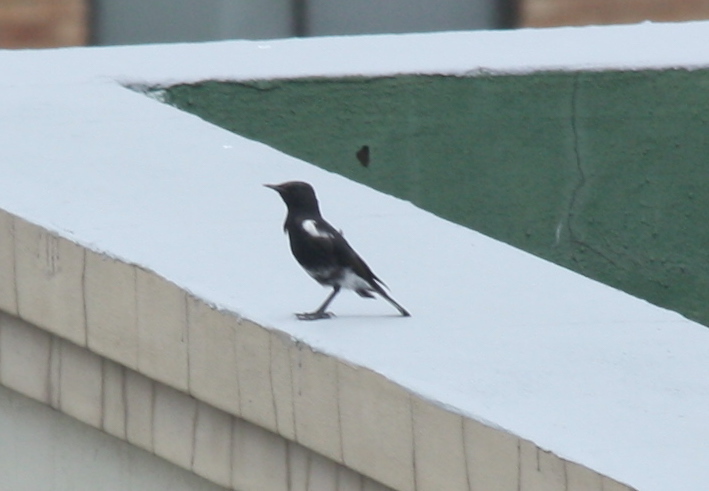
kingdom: Animalia
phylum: Chordata
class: Aves
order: Passeriformes
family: Muscicapidae
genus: Oenanthe
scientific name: Oenanthe monticola
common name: Mountain wheatear
